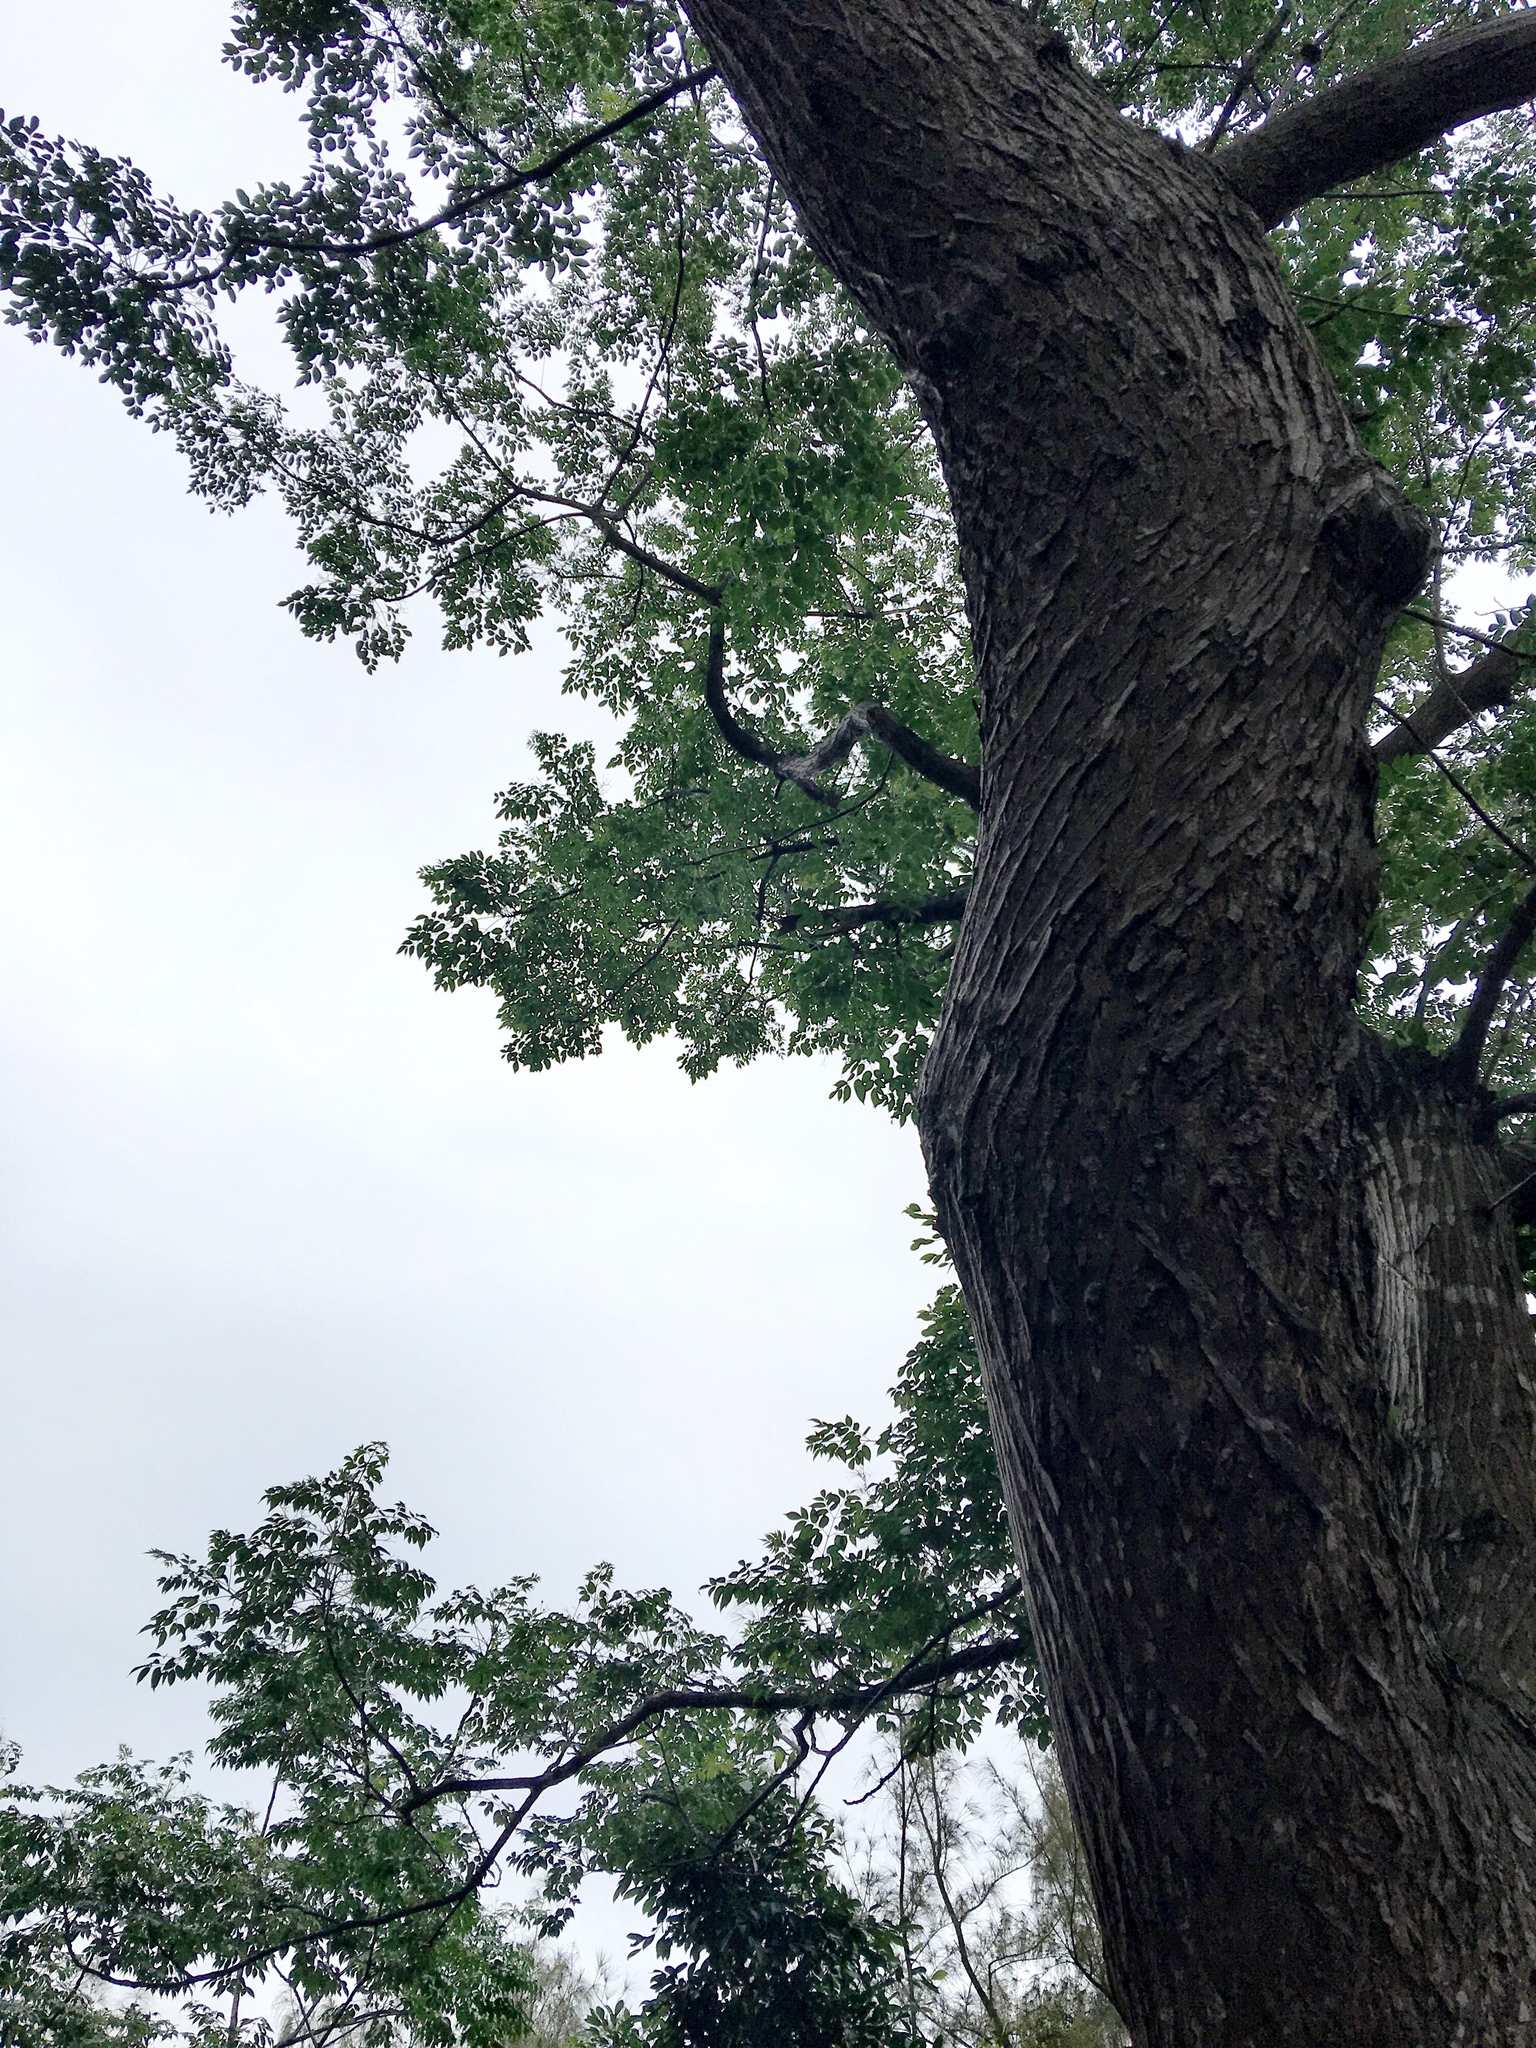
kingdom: Plantae
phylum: Tracheophyta
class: Magnoliopsida
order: Sapindales
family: Meliaceae
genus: Melia
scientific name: Melia azedarach
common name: Chinaberrytree
